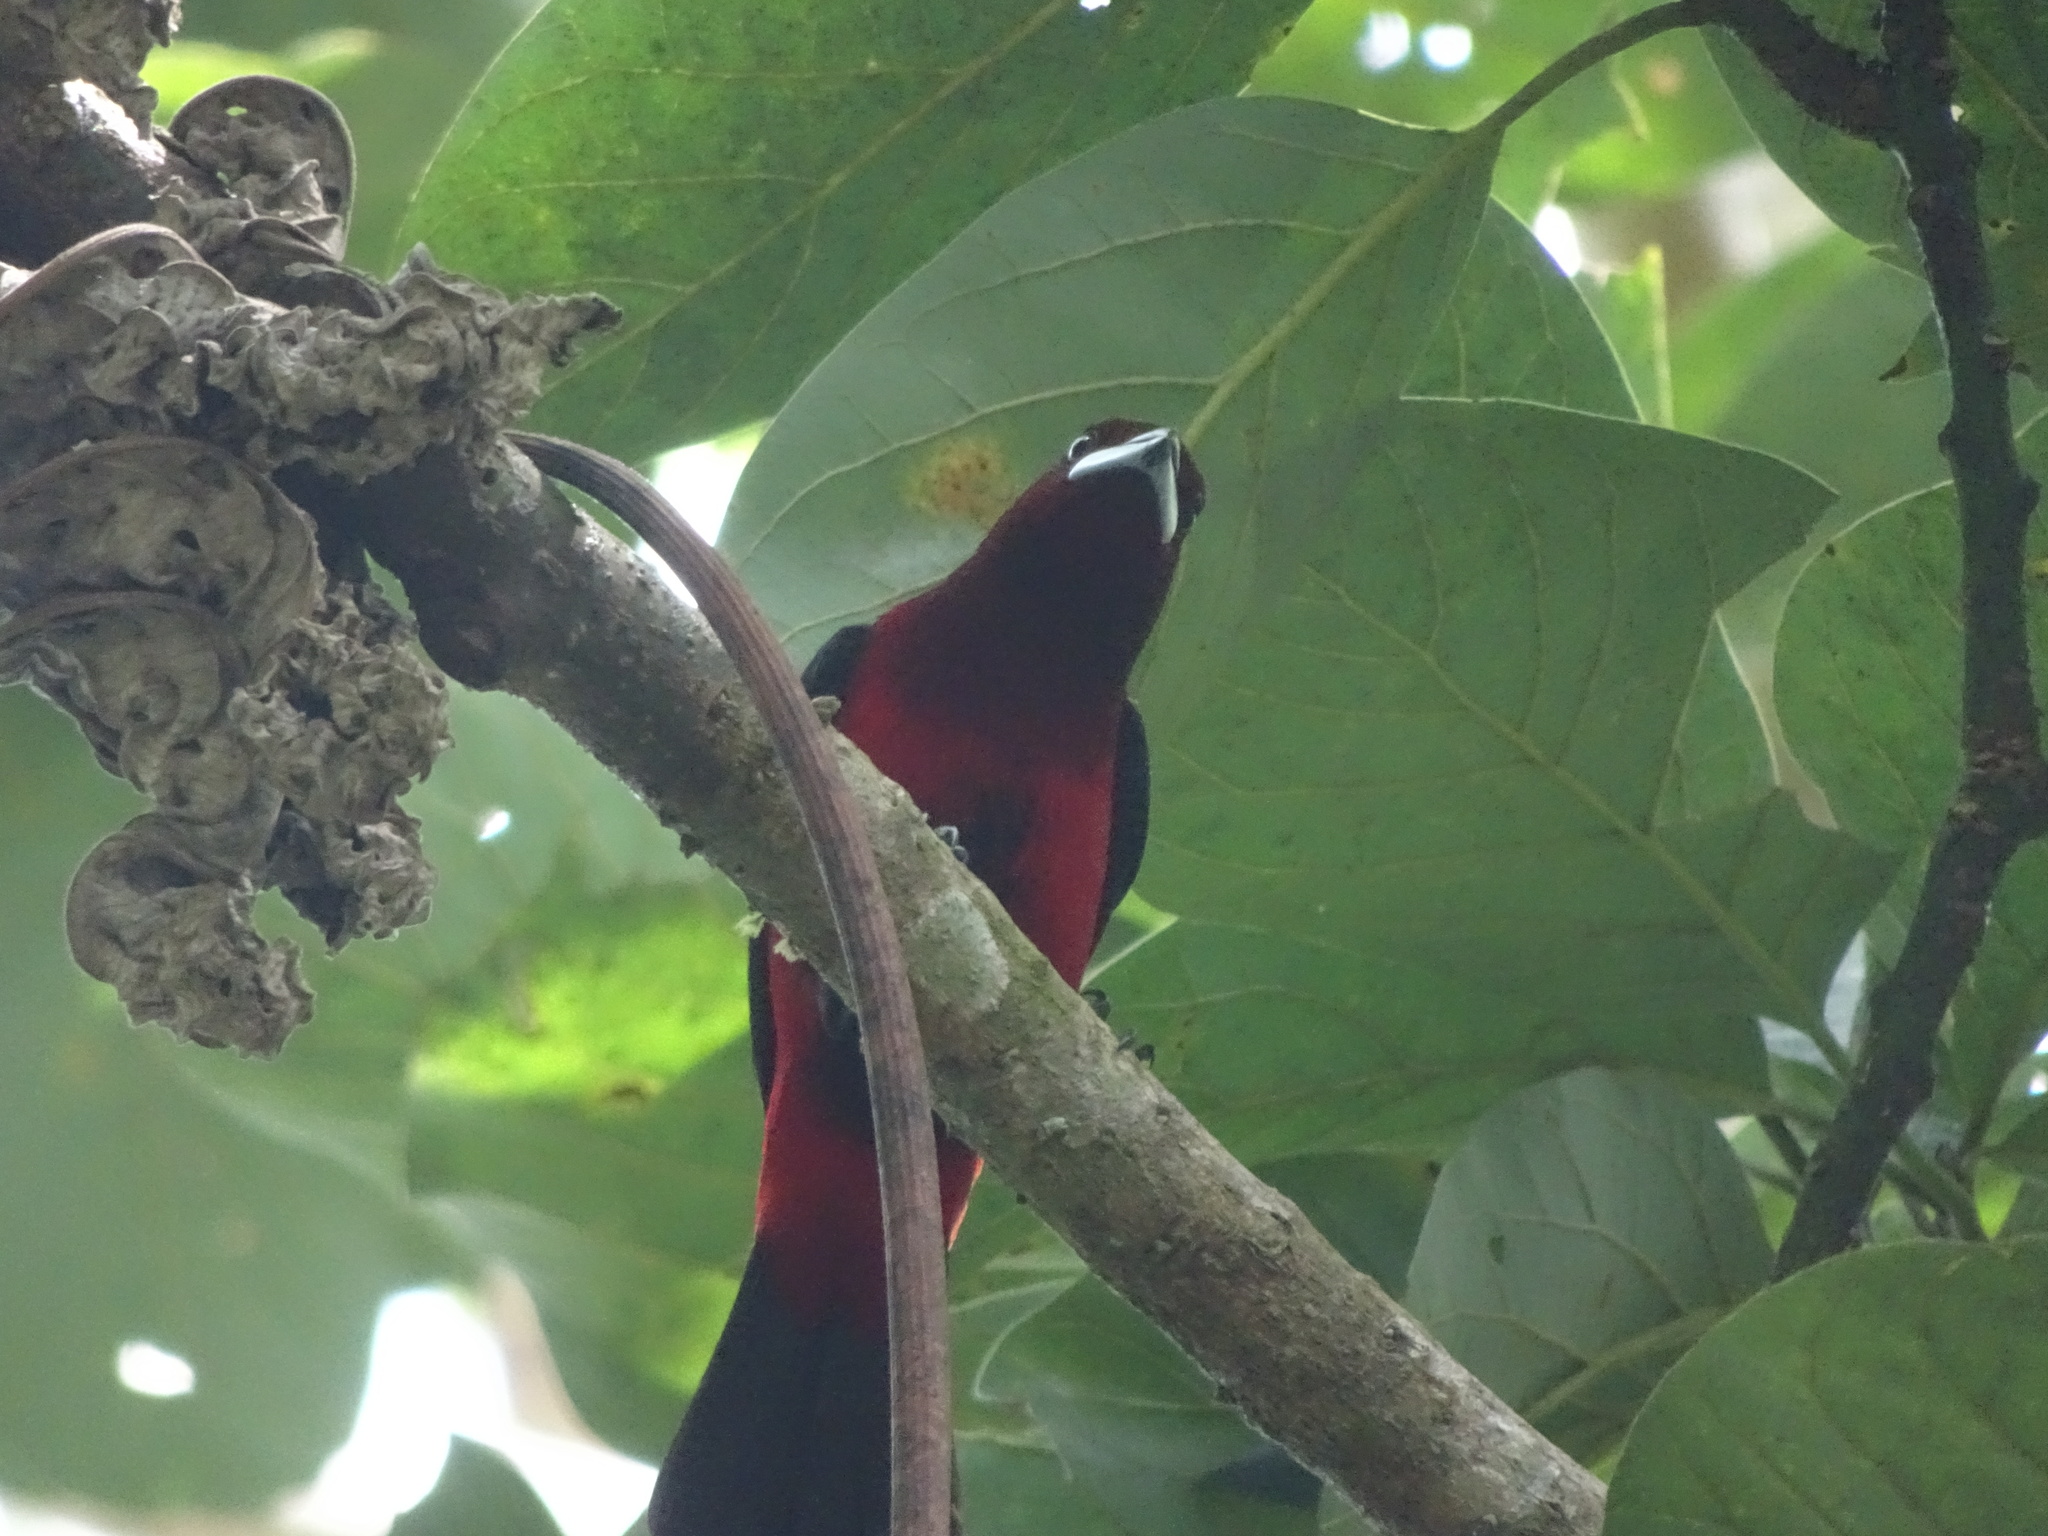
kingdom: Animalia
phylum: Chordata
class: Aves
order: Passeriformes
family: Thraupidae
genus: Ramphocelus
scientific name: Ramphocelus dimidiatus
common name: Crimson-backed tanager
